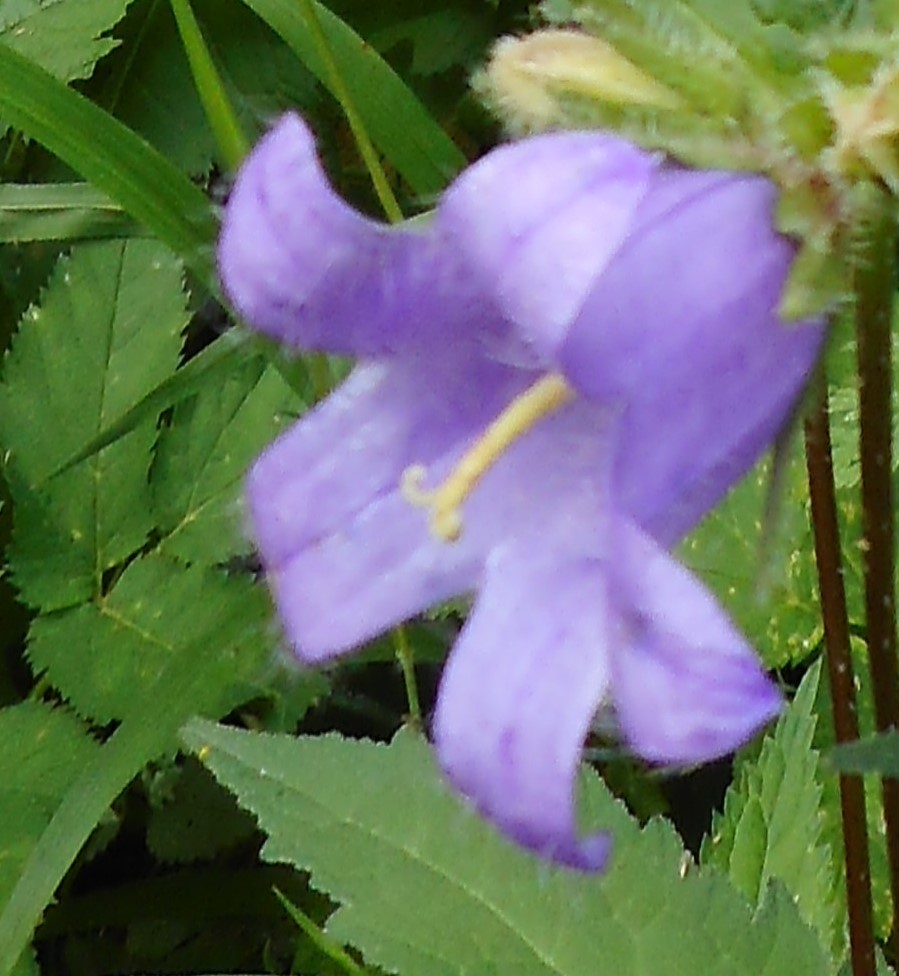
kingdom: Plantae
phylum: Tracheophyta
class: Magnoliopsida
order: Asterales
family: Campanulaceae
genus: Campanula
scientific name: Campanula trachelium
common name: Nettle-leaved bellflower
